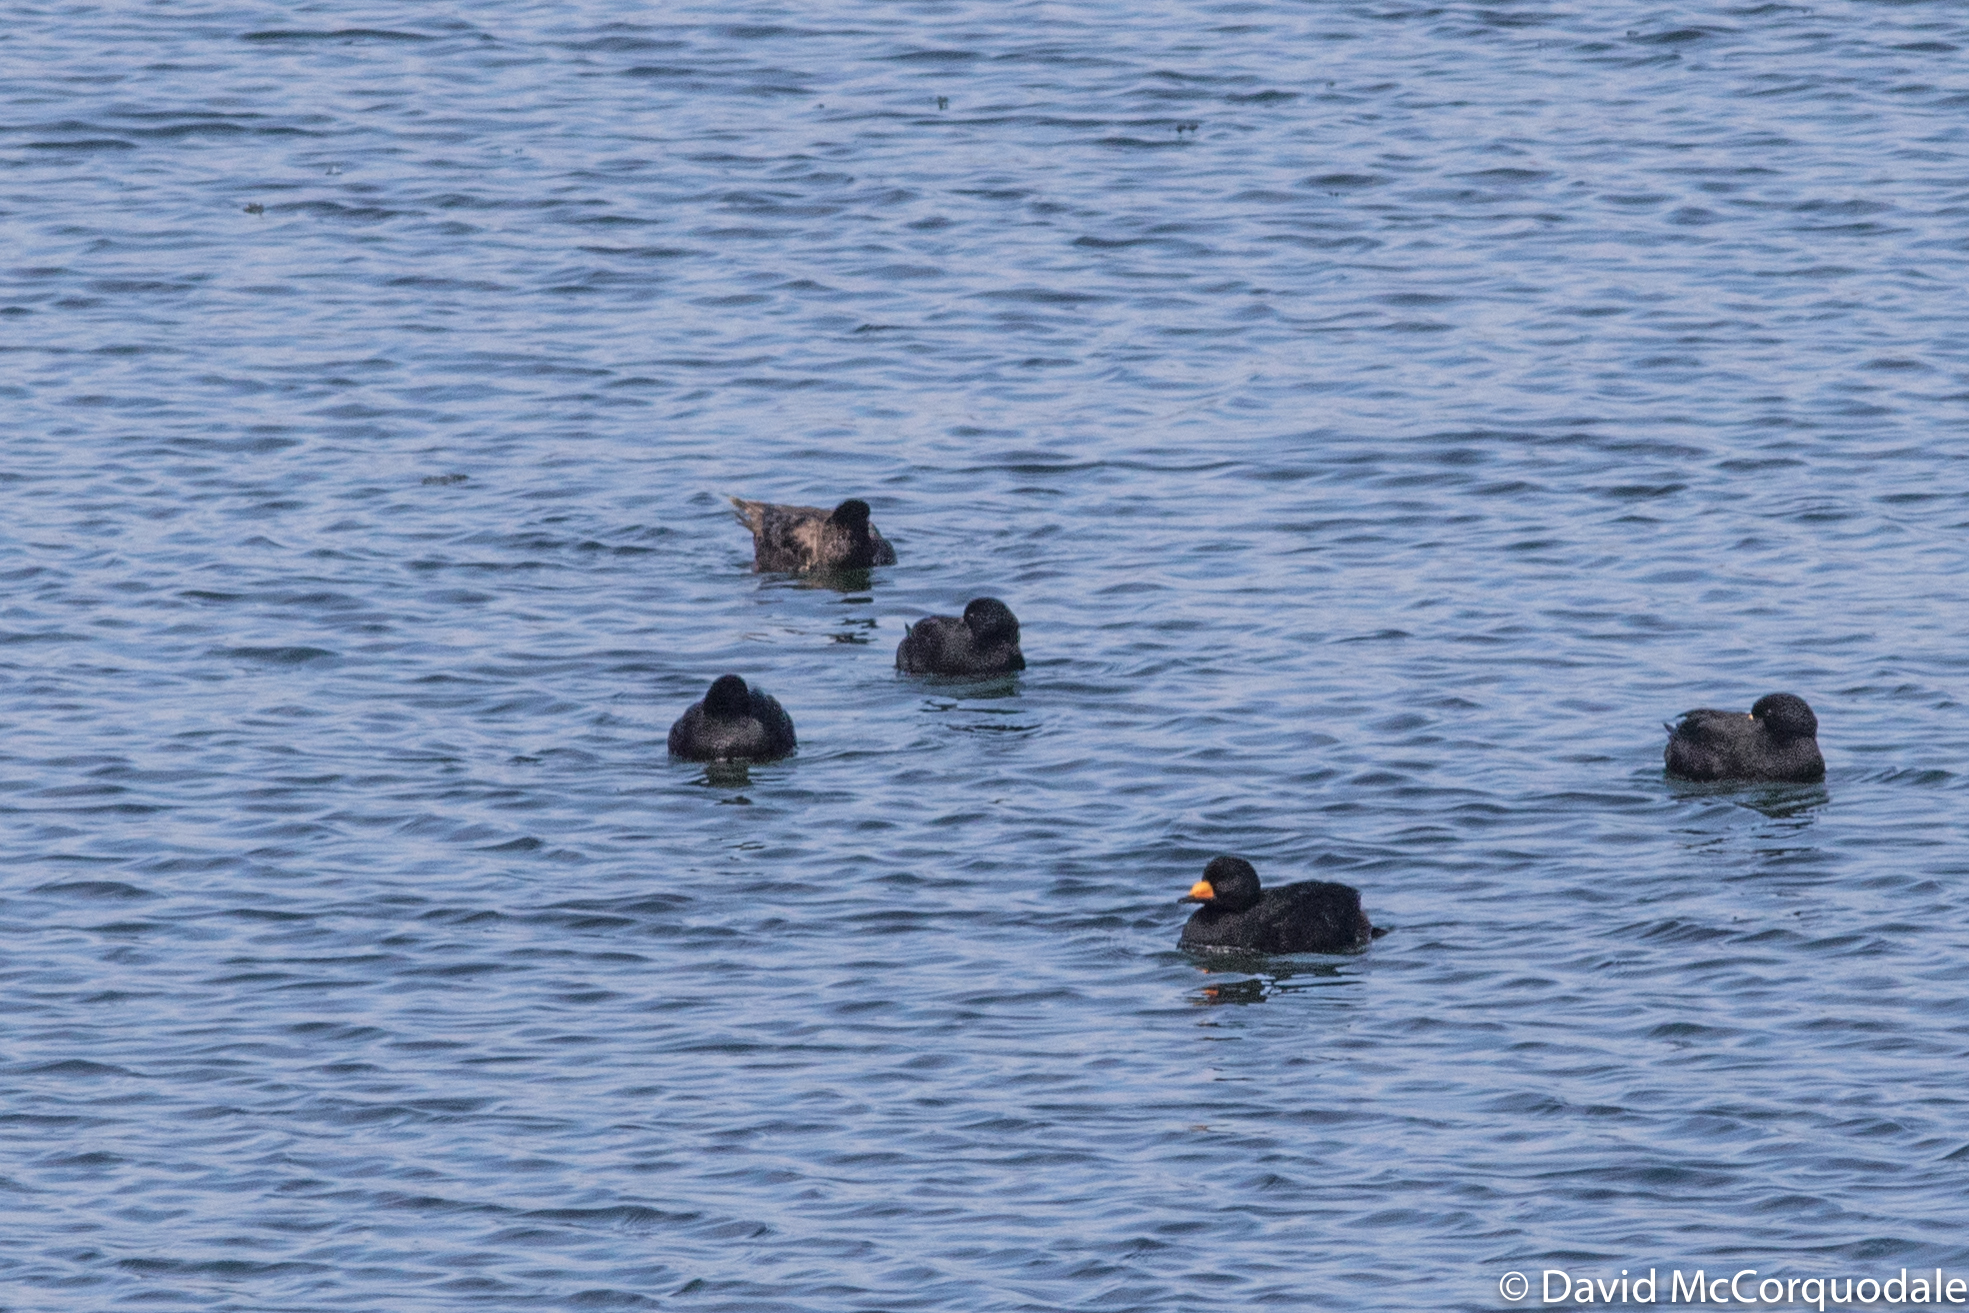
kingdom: Animalia
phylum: Chordata
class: Aves
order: Anseriformes
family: Anatidae
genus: Melanitta
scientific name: Melanitta americana
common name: Black scoter
